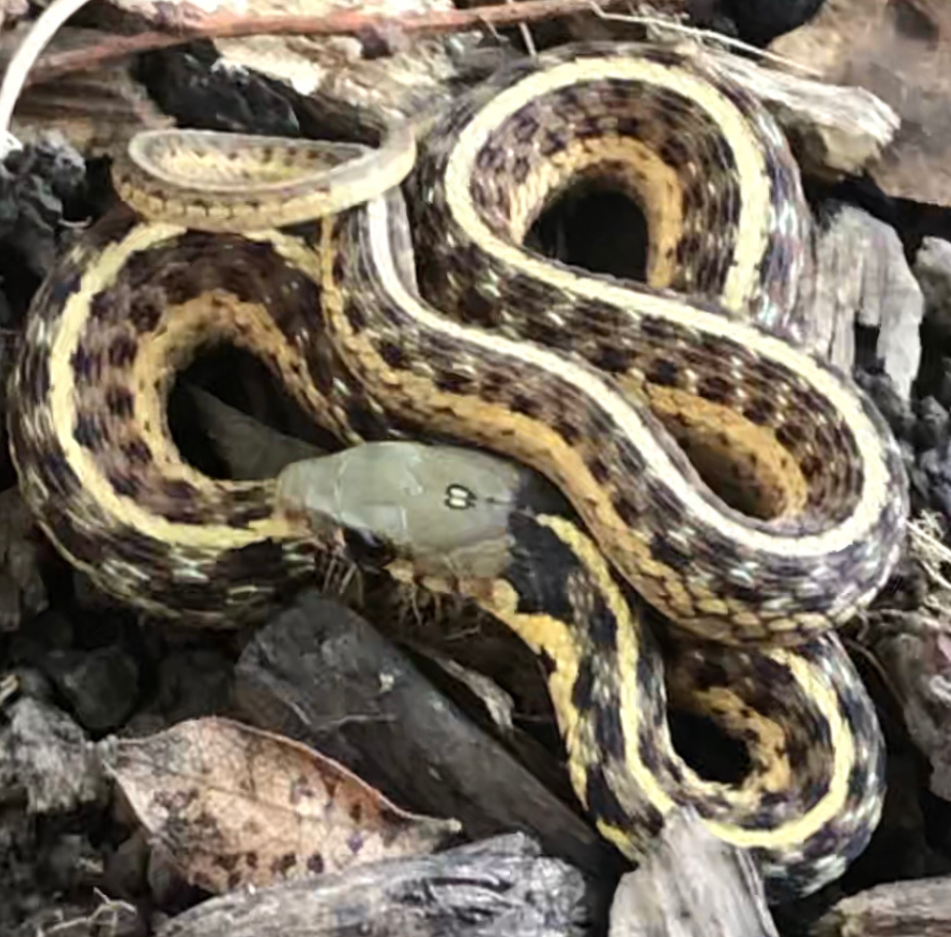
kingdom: Animalia
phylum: Chordata
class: Squamata
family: Colubridae
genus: Thamnophis
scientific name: Thamnophis sirtalis
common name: Common garter snake
